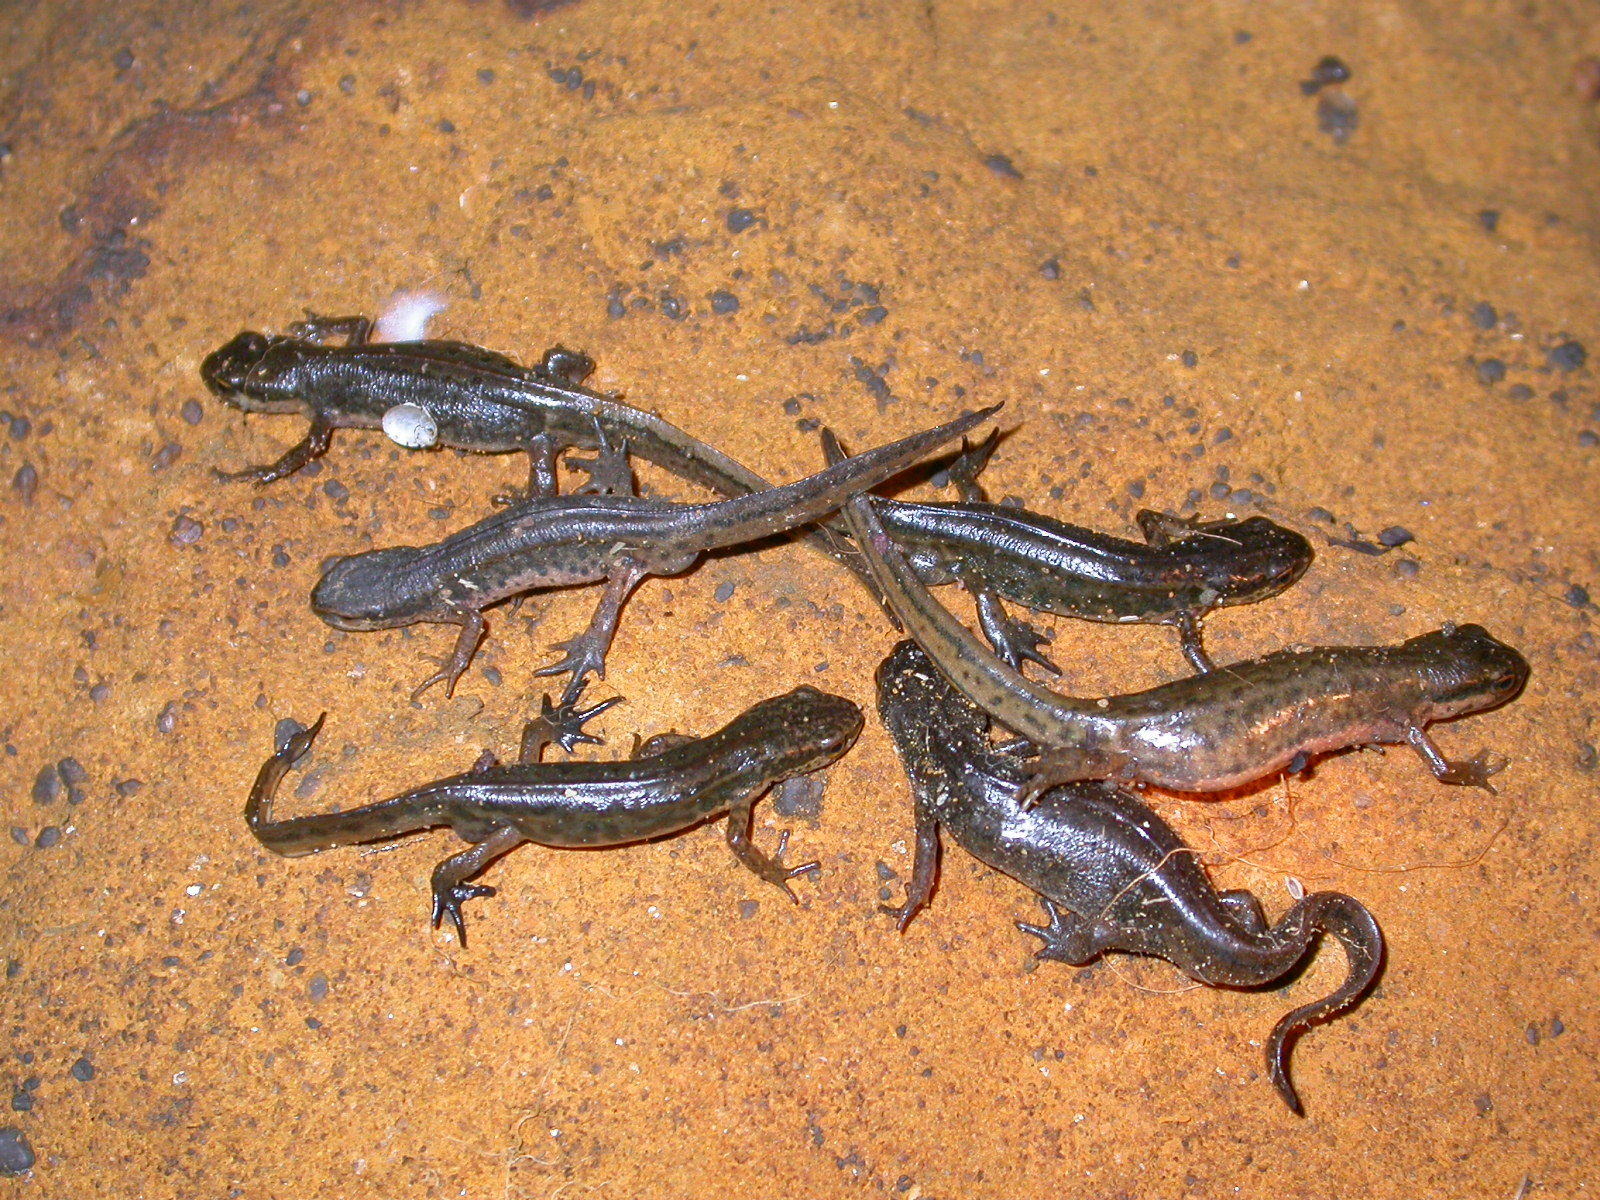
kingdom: Animalia
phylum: Chordata
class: Amphibia
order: Caudata
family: Salamandridae
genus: Lissotriton
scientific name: Lissotriton helveticus
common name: Palmate newt
